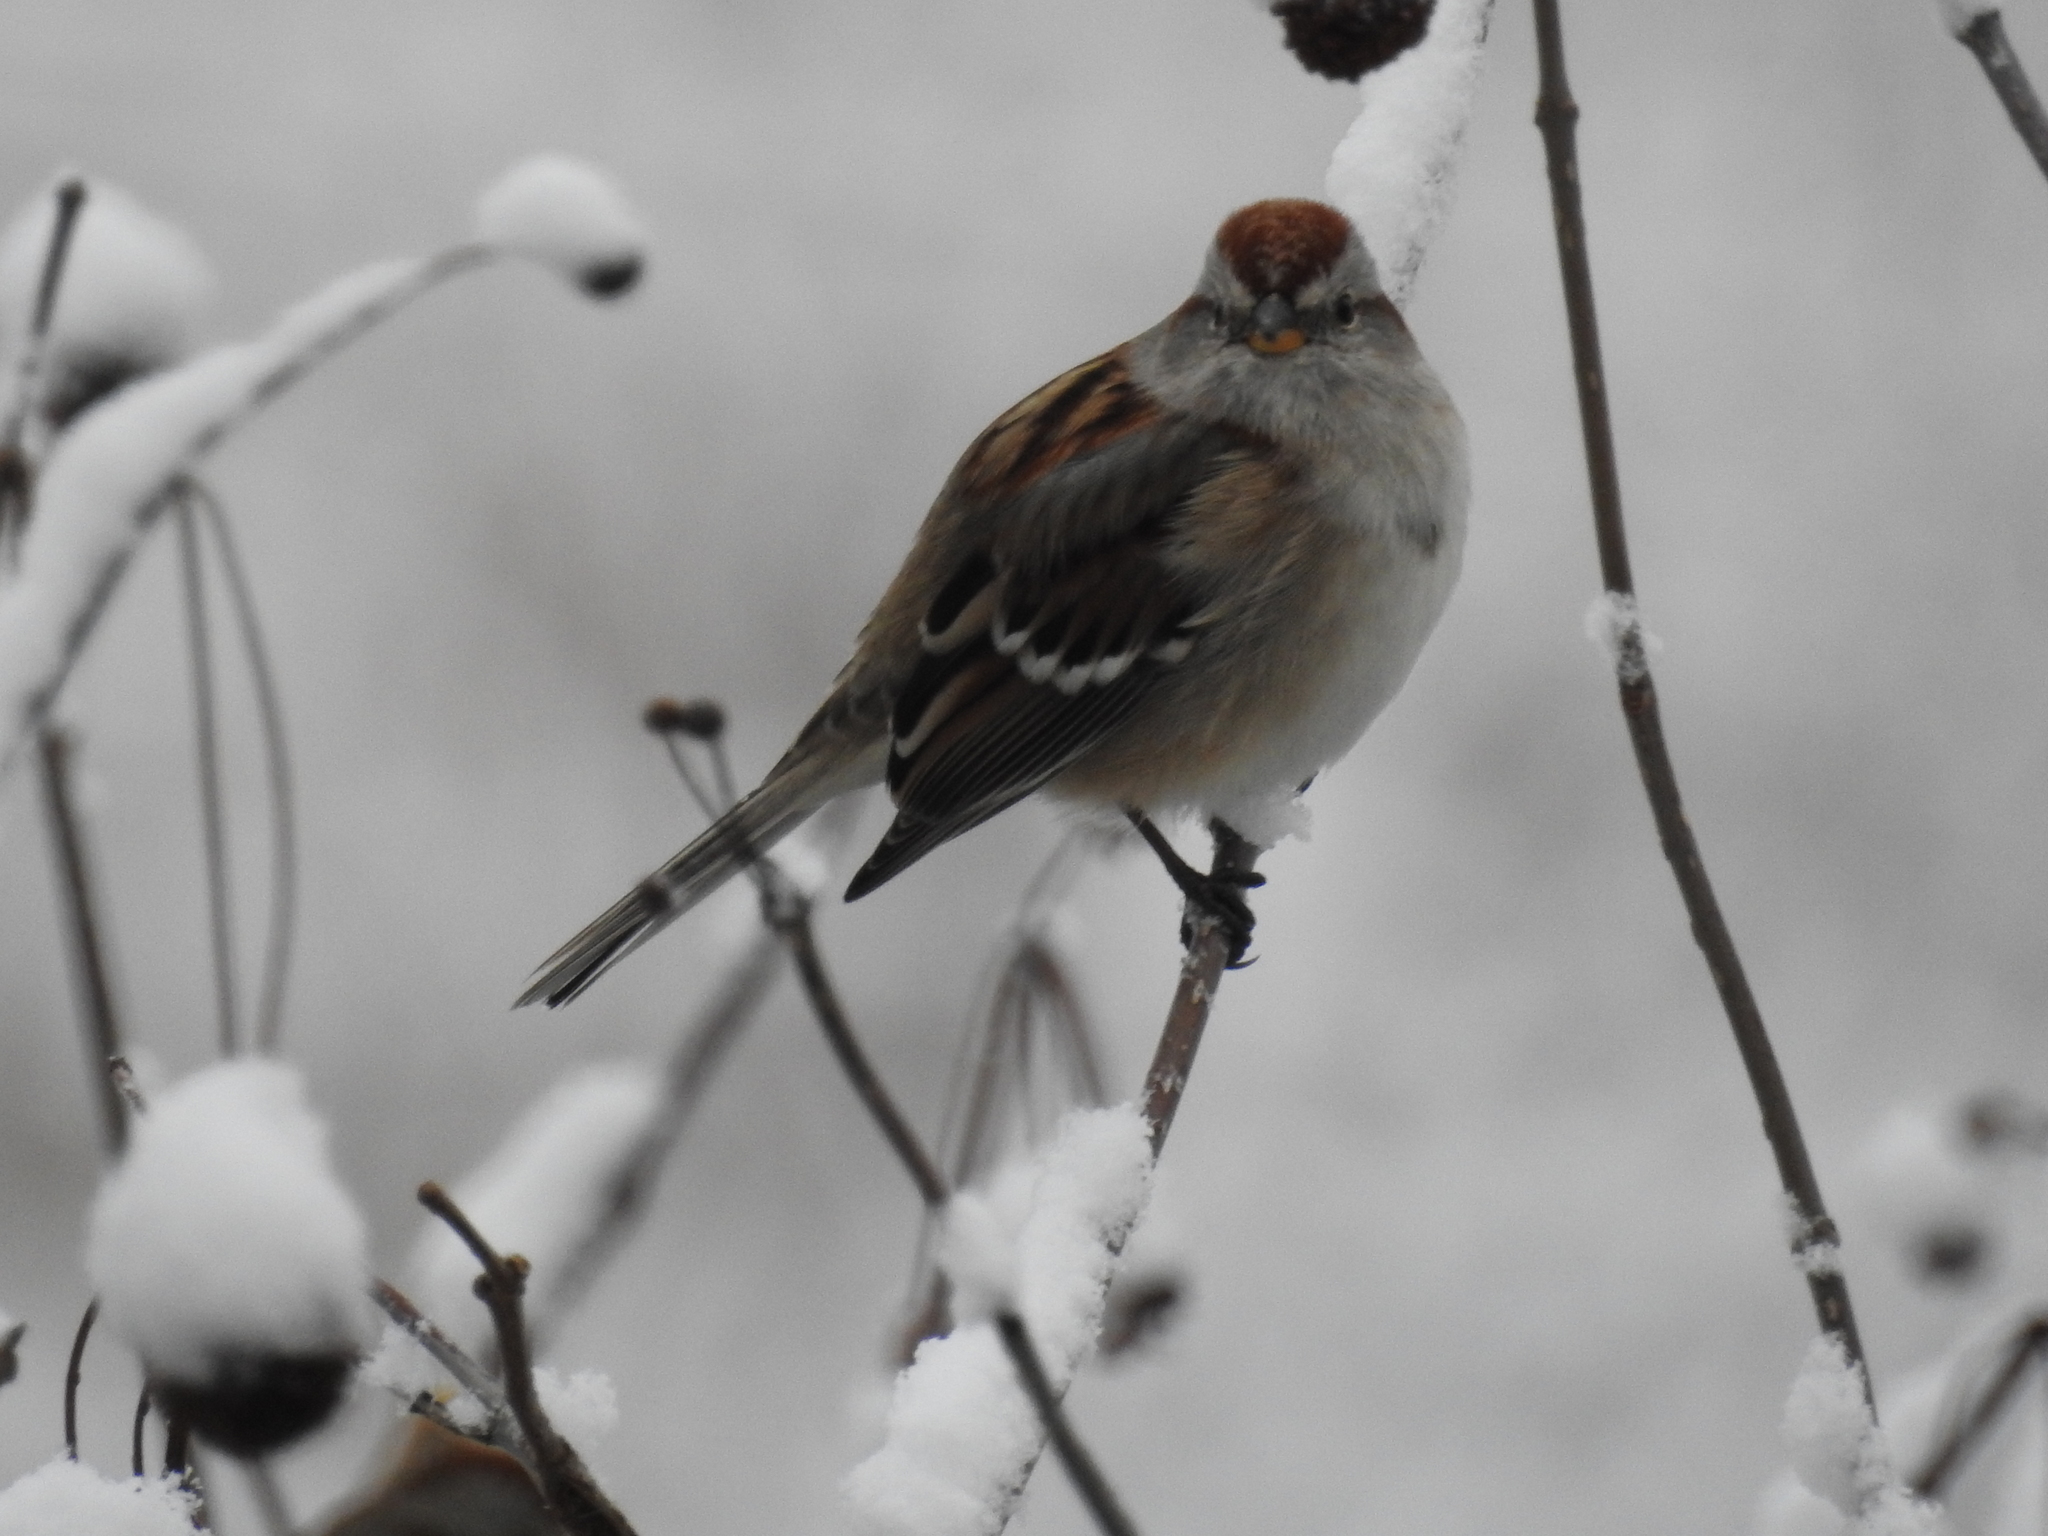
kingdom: Animalia
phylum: Chordata
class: Aves
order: Passeriformes
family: Passerellidae
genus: Spizelloides
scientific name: Spizelloides arborea
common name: American tree sparrow
